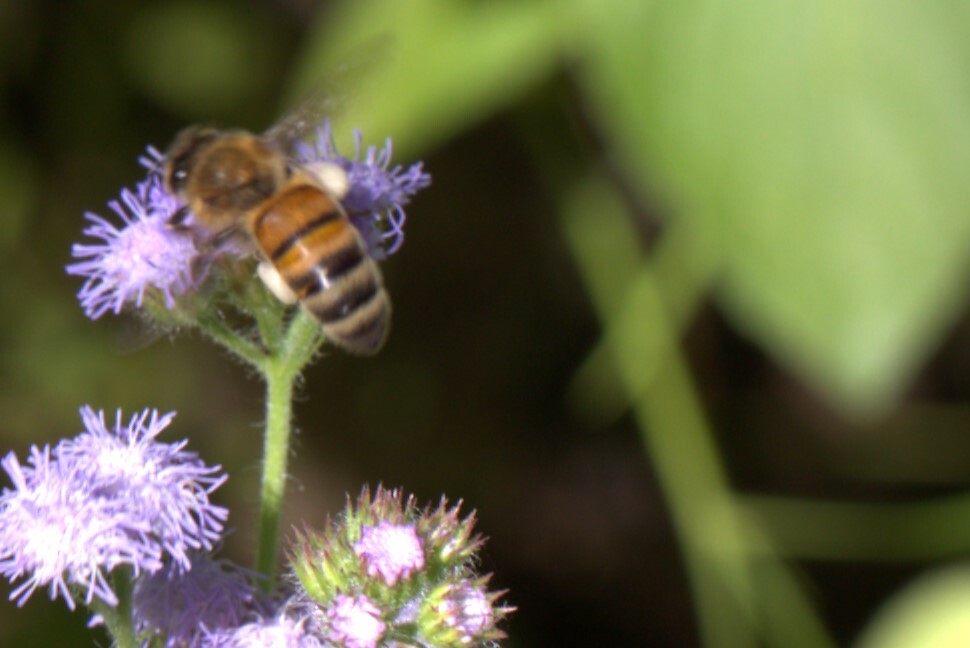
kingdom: Animalia
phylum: Arthropoda
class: Insecta
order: Hymenoptera
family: Apidae
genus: Apis
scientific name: Apis mellifera
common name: Honey bee
